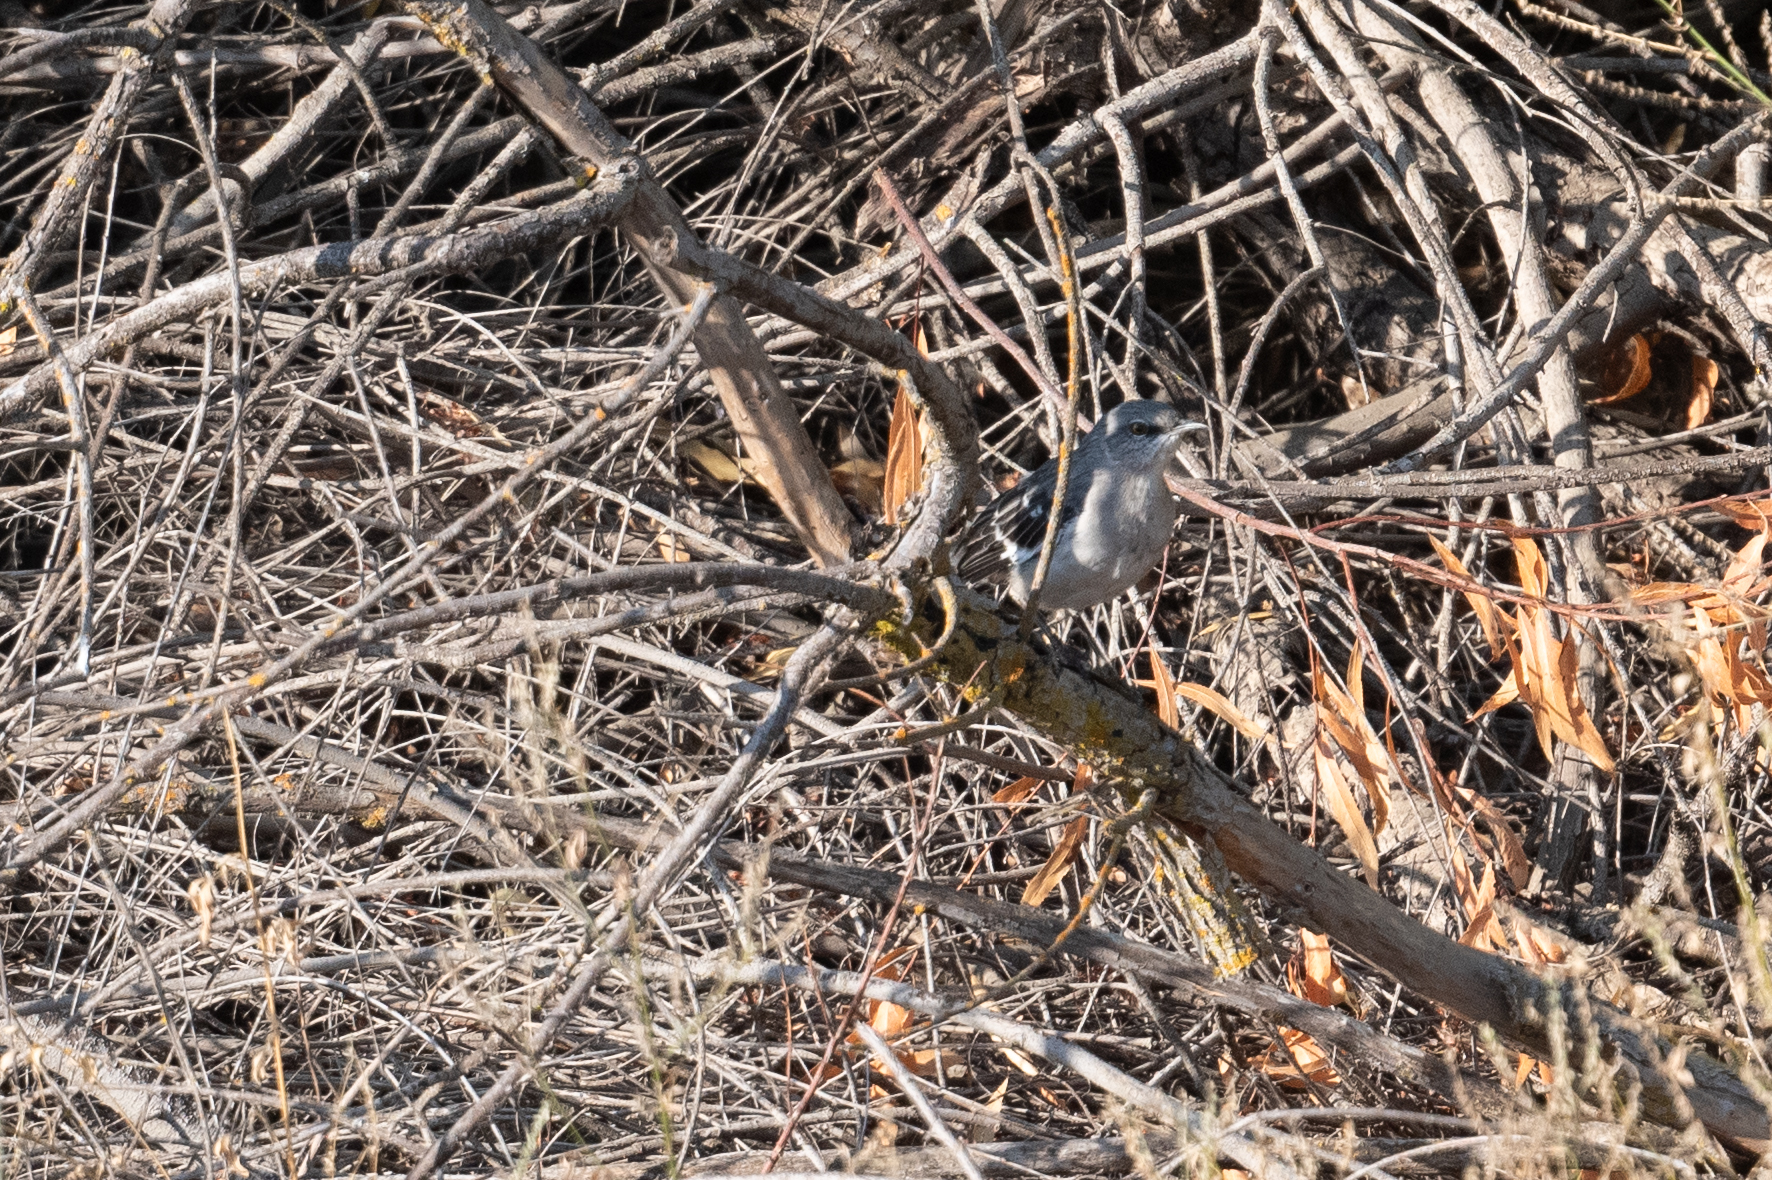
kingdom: Animalia
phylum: Chordata
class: Aves
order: Passeriformes
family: Mimidae
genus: Mimus
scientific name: Mimus polyglottos
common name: Northern mockingbird
